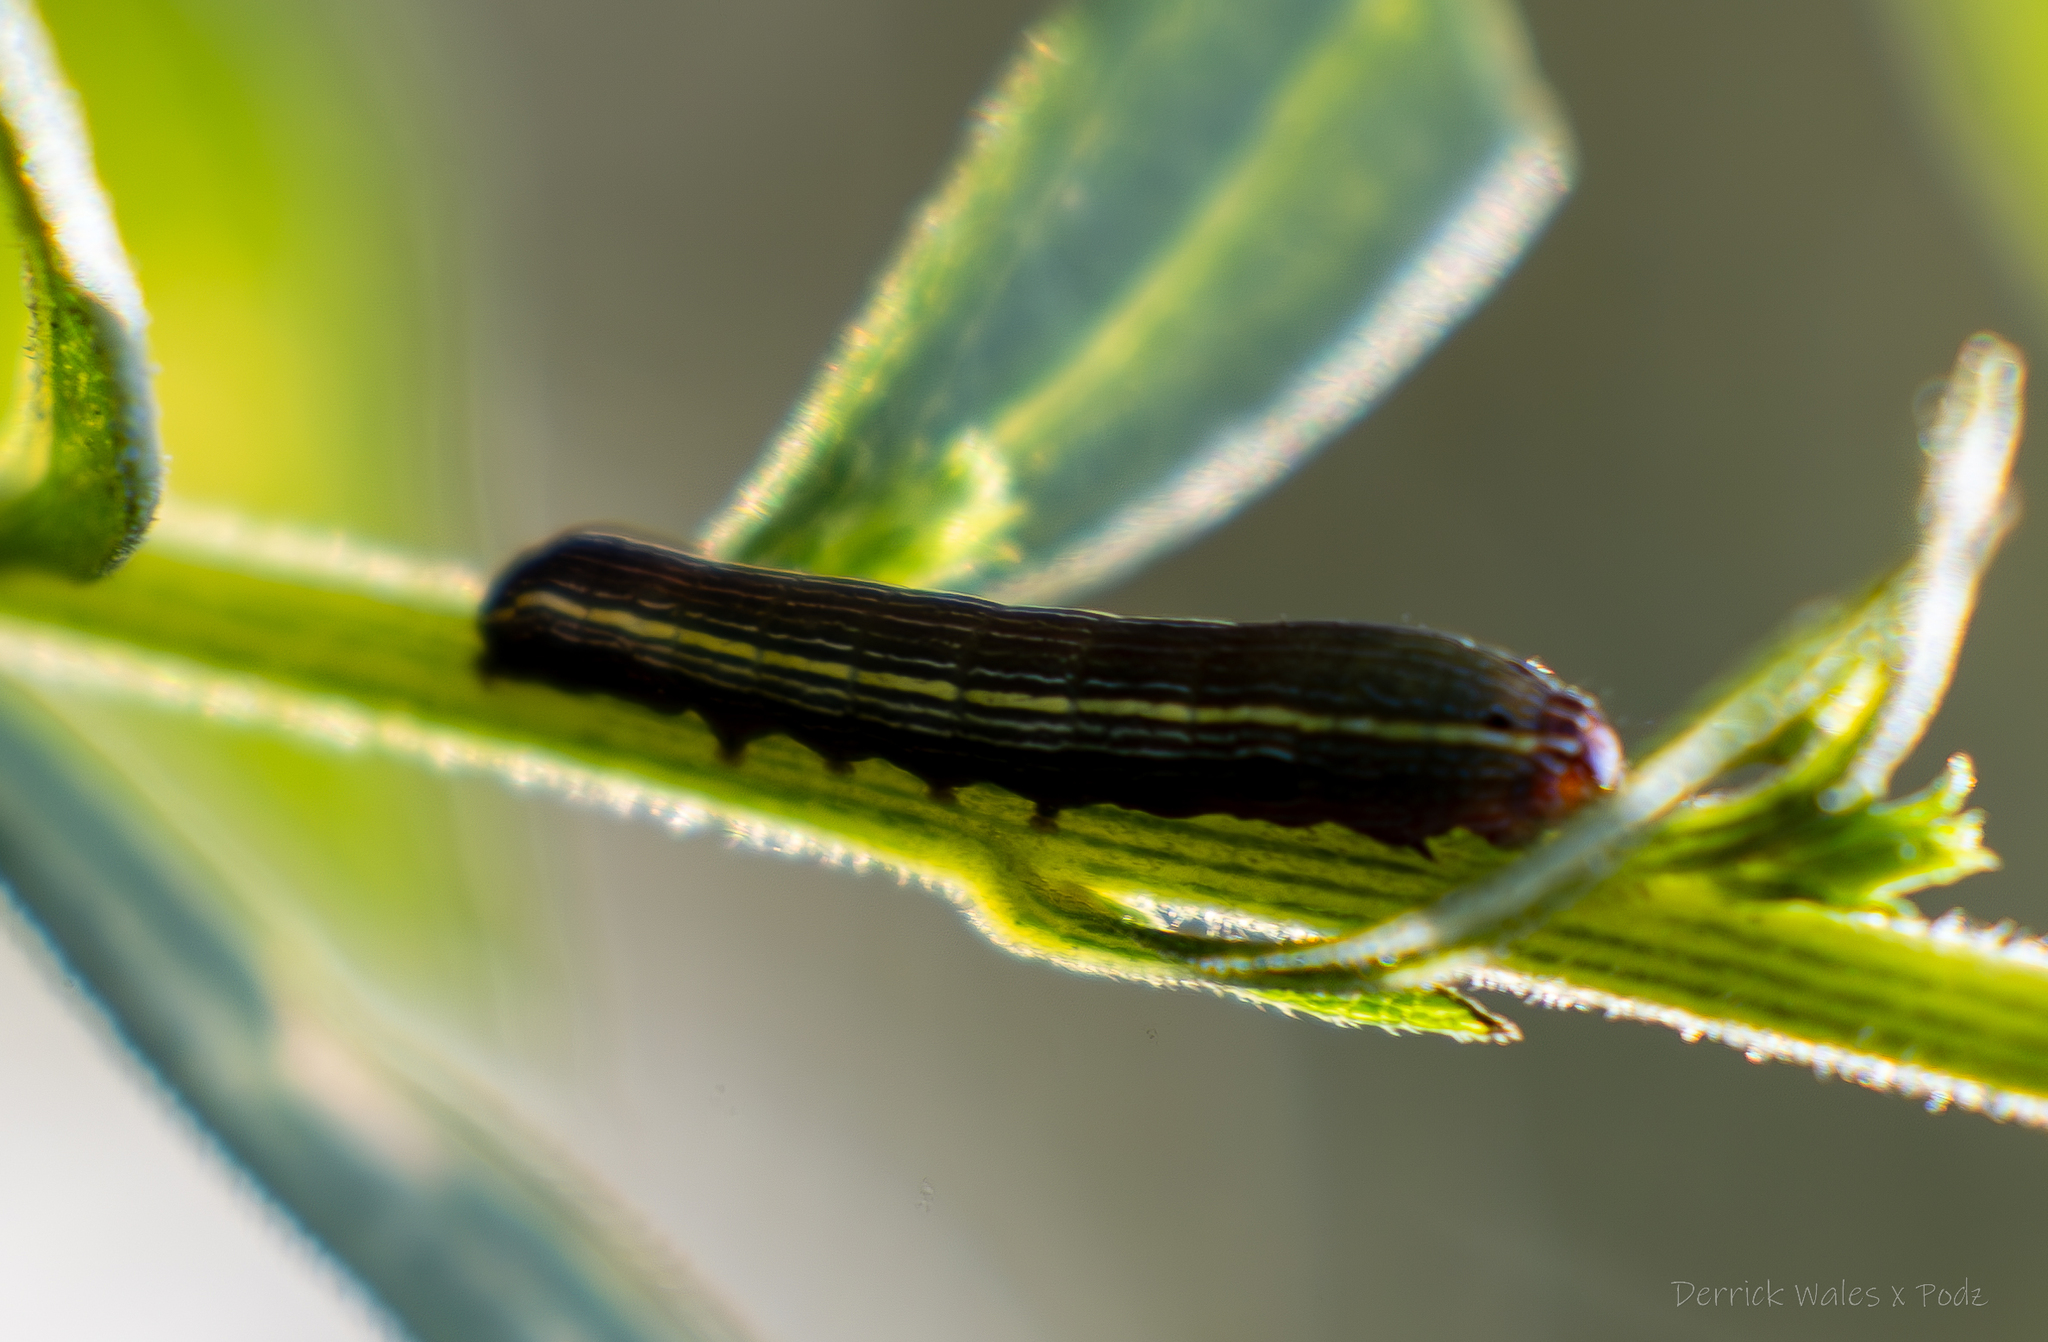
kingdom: Animalia
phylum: Arthropoda
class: Insecta
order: Lepidoptera
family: Noctuidae
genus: Spodoptera
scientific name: Spodoptera ornithogalli
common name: Yellow-striped armyworm
